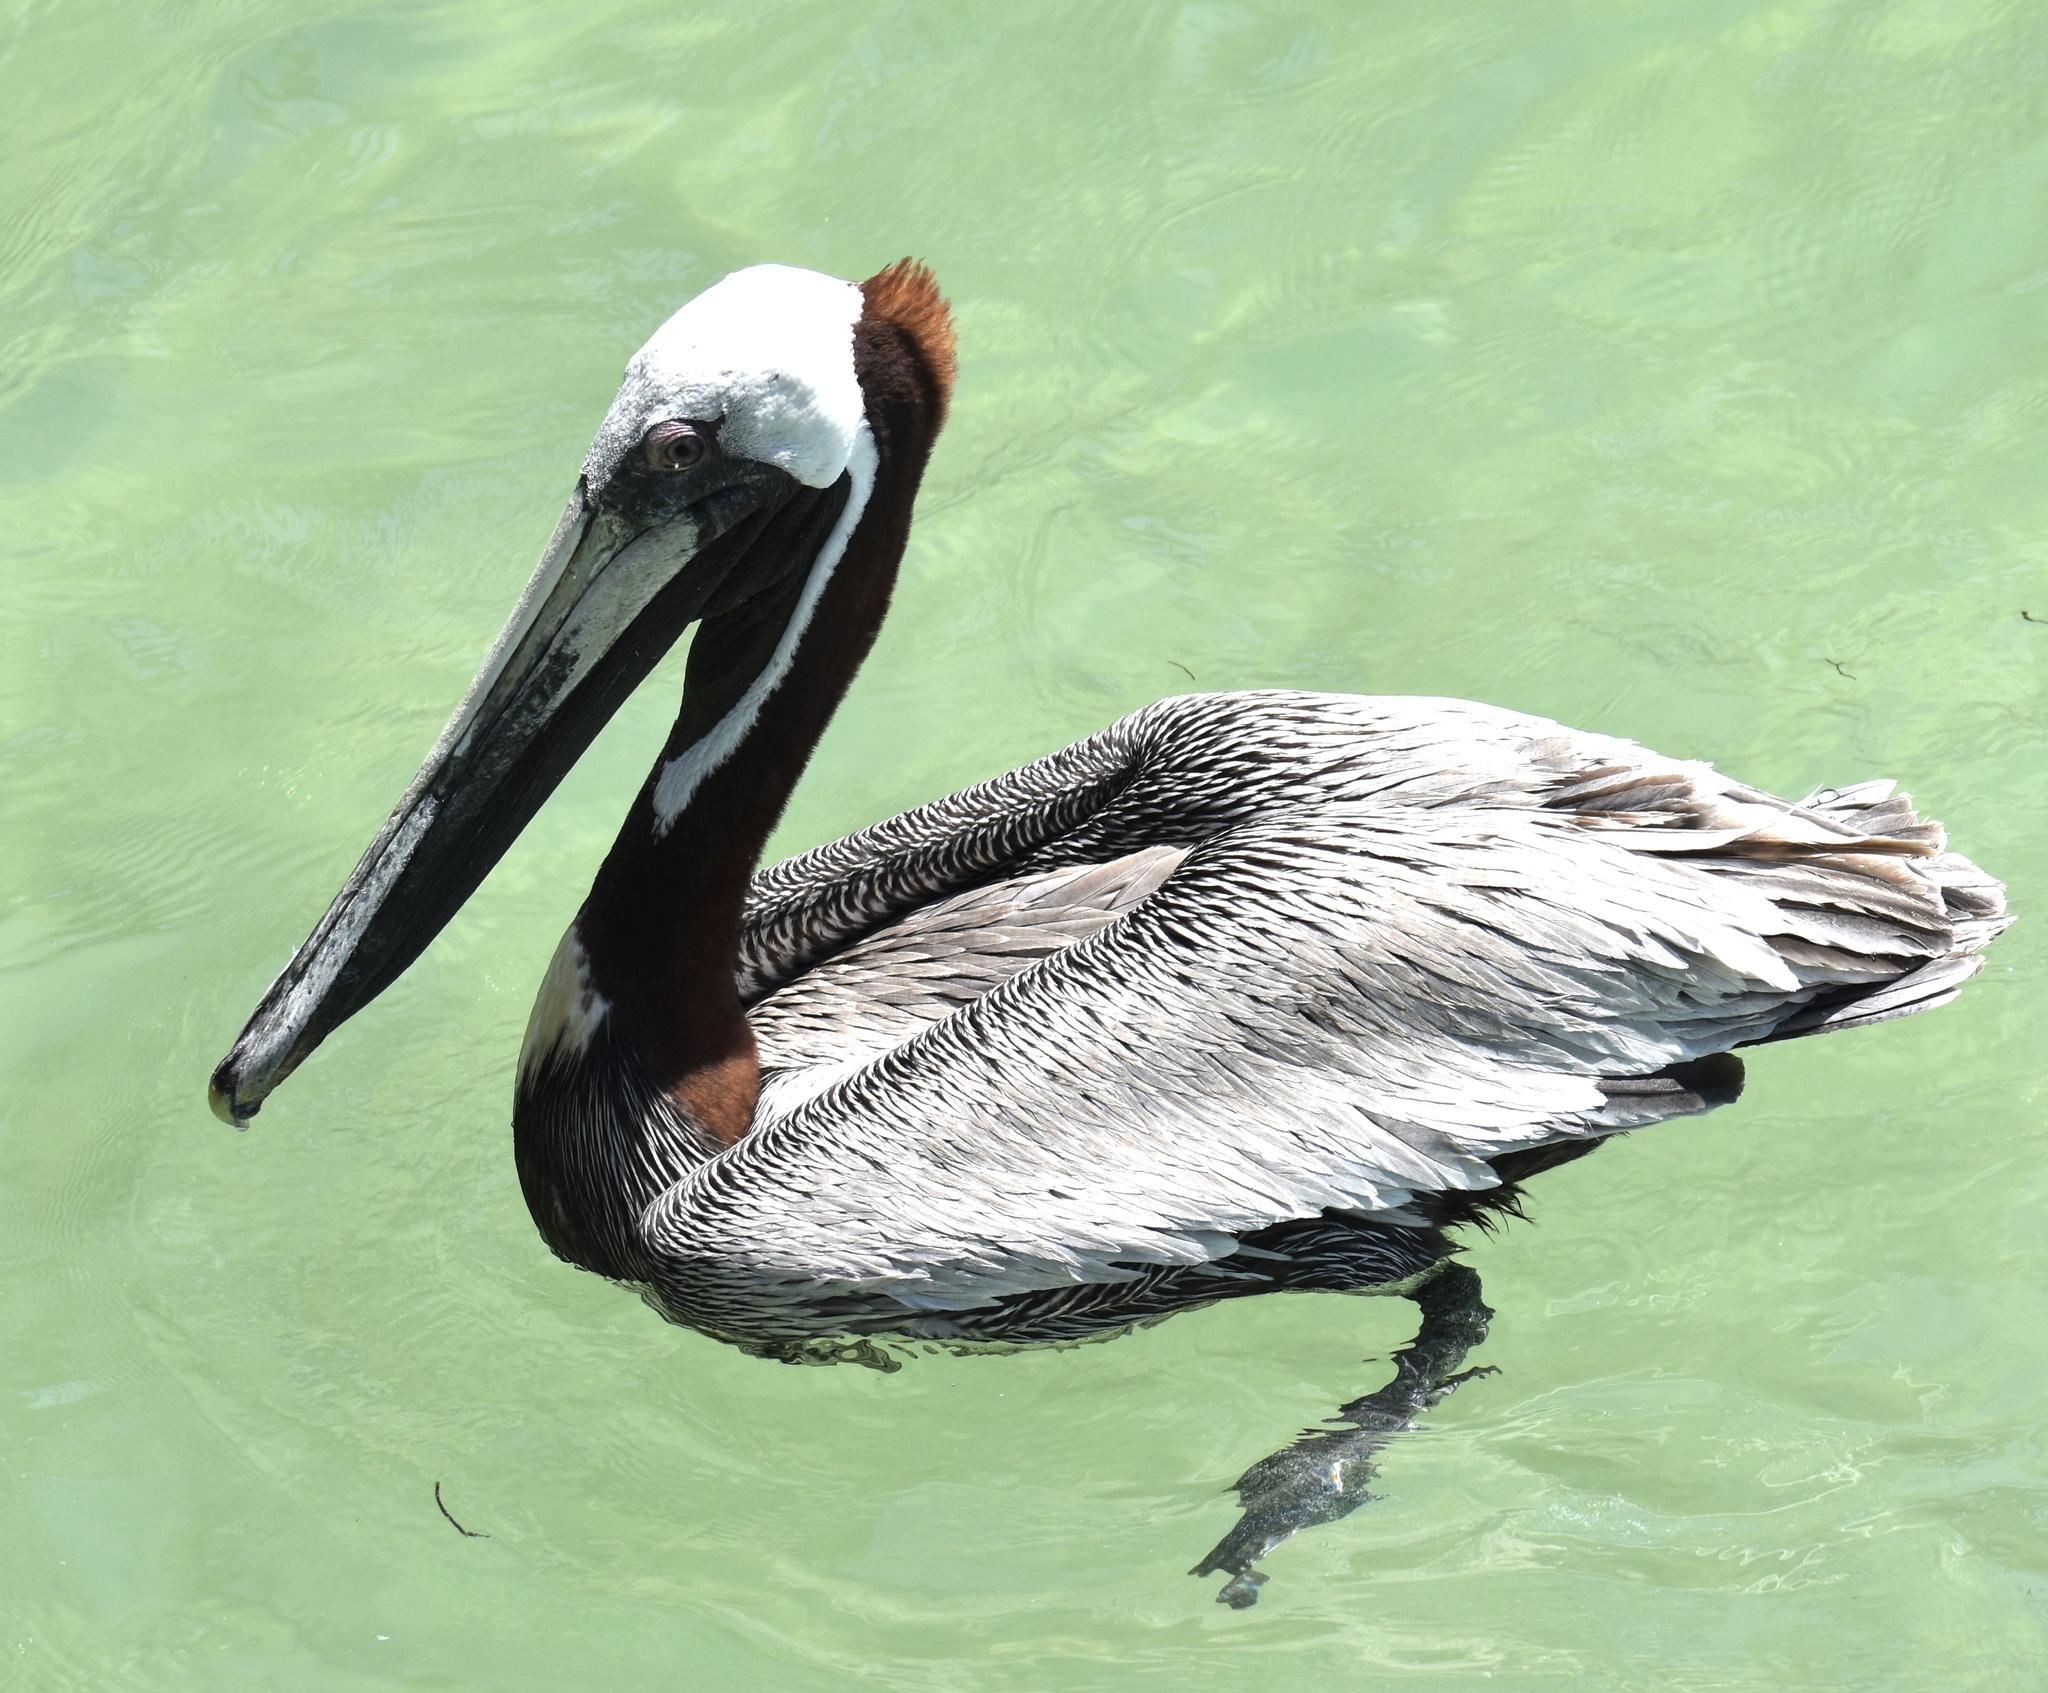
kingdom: Animalia
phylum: Chordata
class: Aves
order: Pelecaniformes
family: Pelecanidae
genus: Pelecanus
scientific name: Pelecanus occidentalis
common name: Brown pelican
